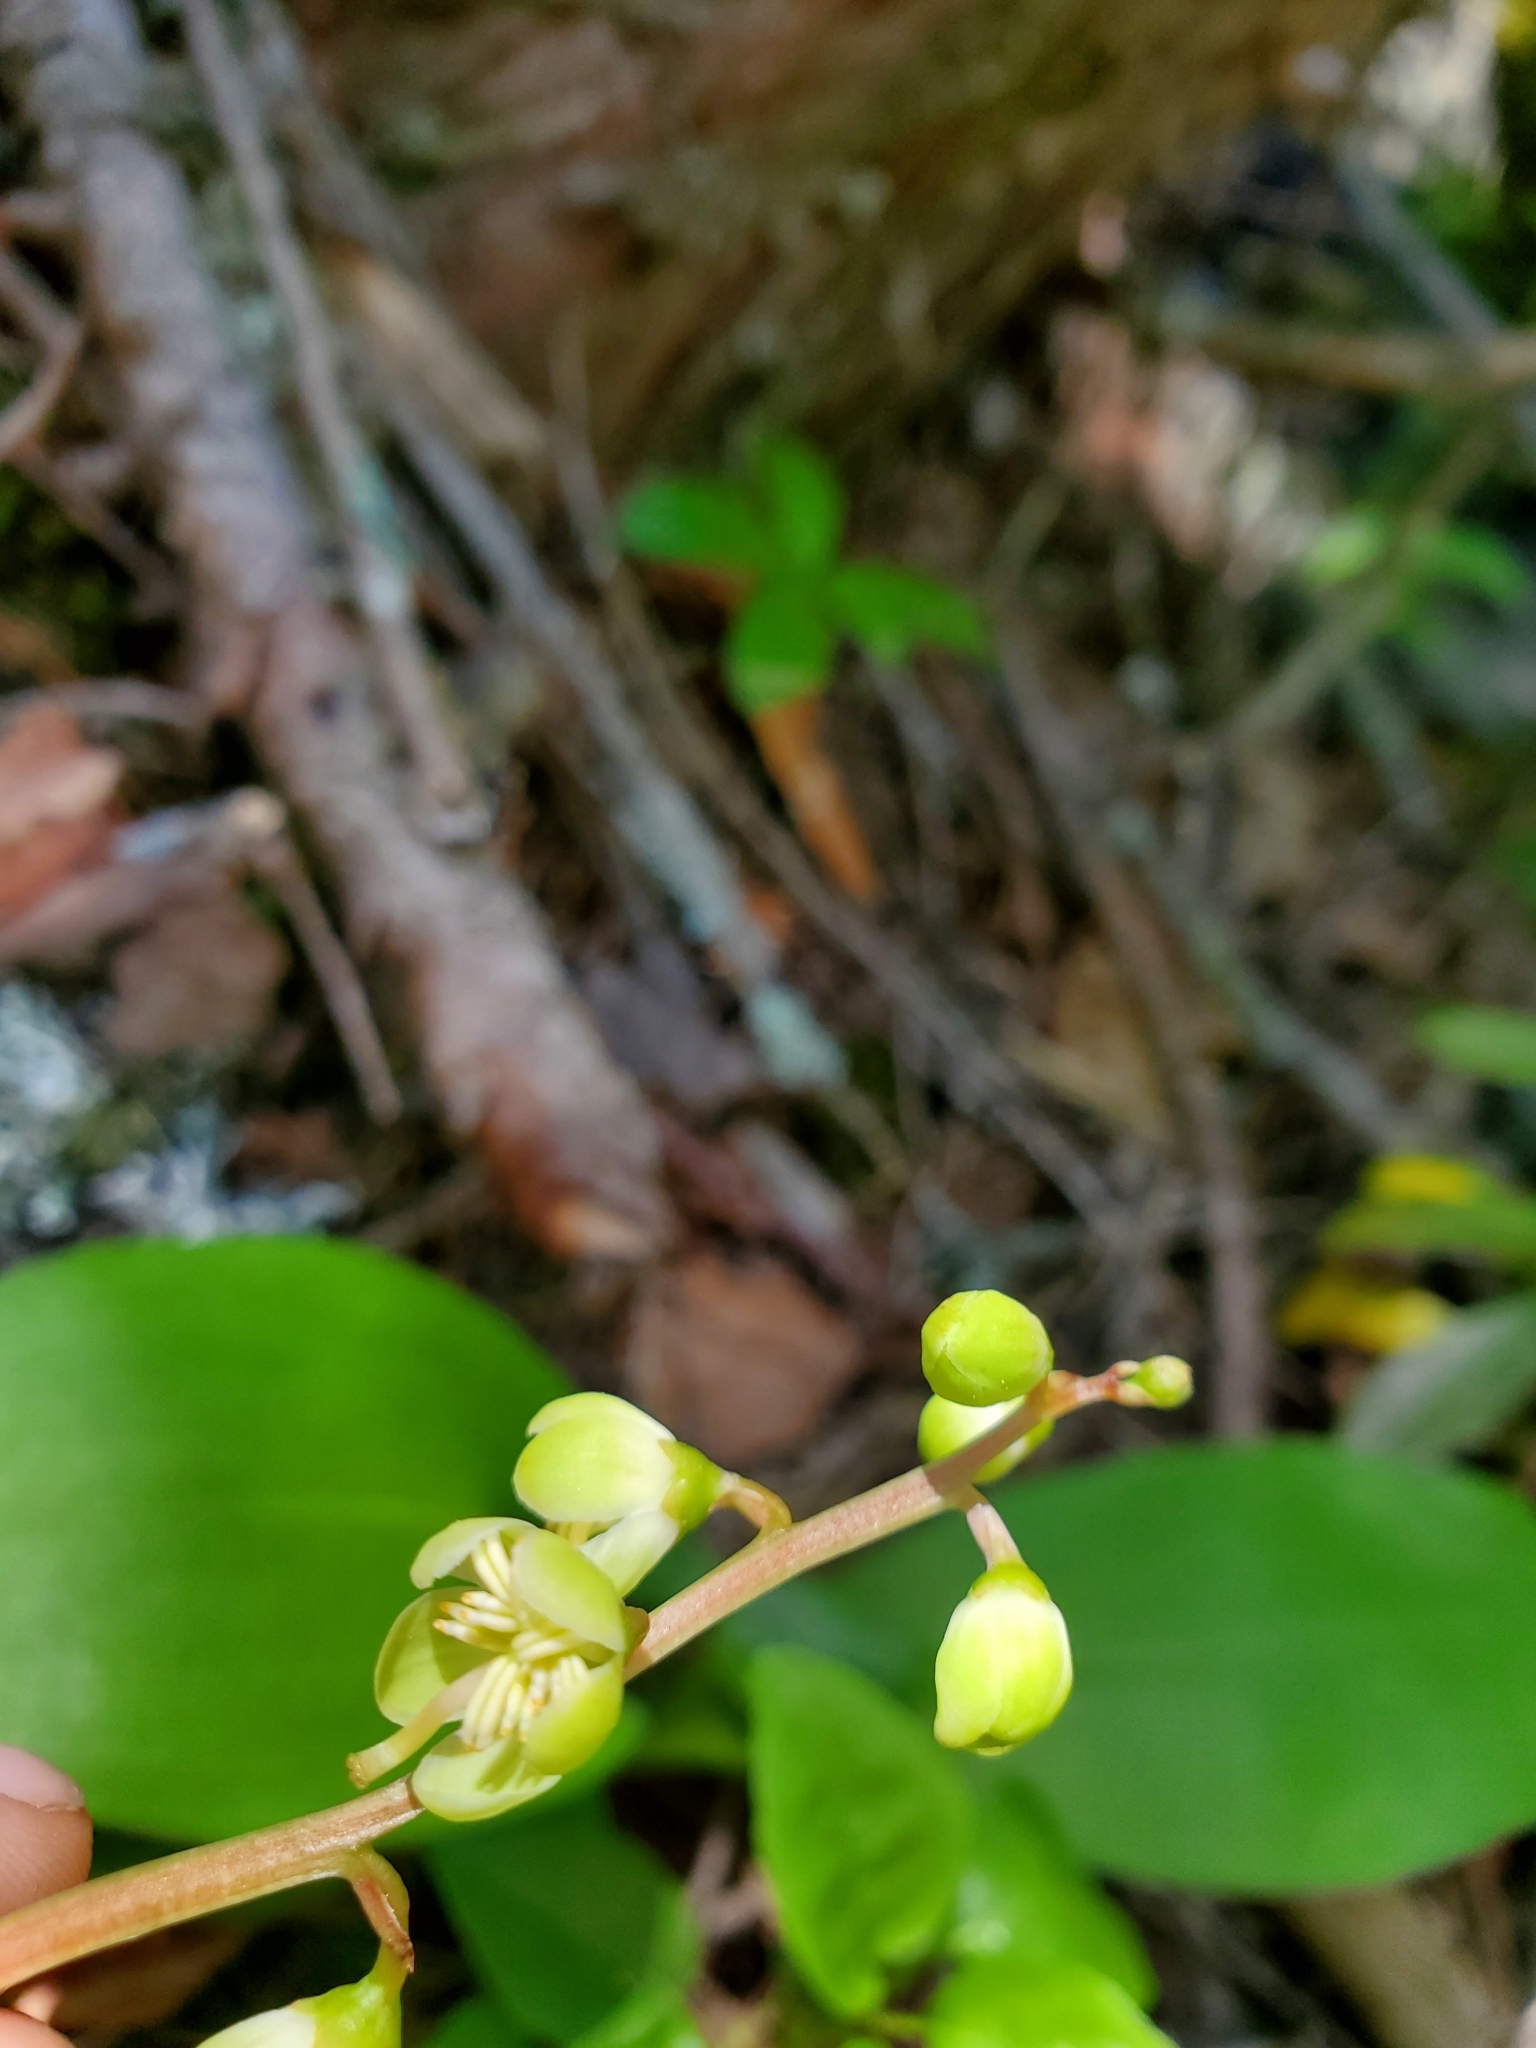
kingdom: Plantae
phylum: Tracheophyta
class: Magnoliopsida
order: Ericales
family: Ericaceae
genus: Pyrola
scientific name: Pyrola chlorantha
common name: Green wintergreen
